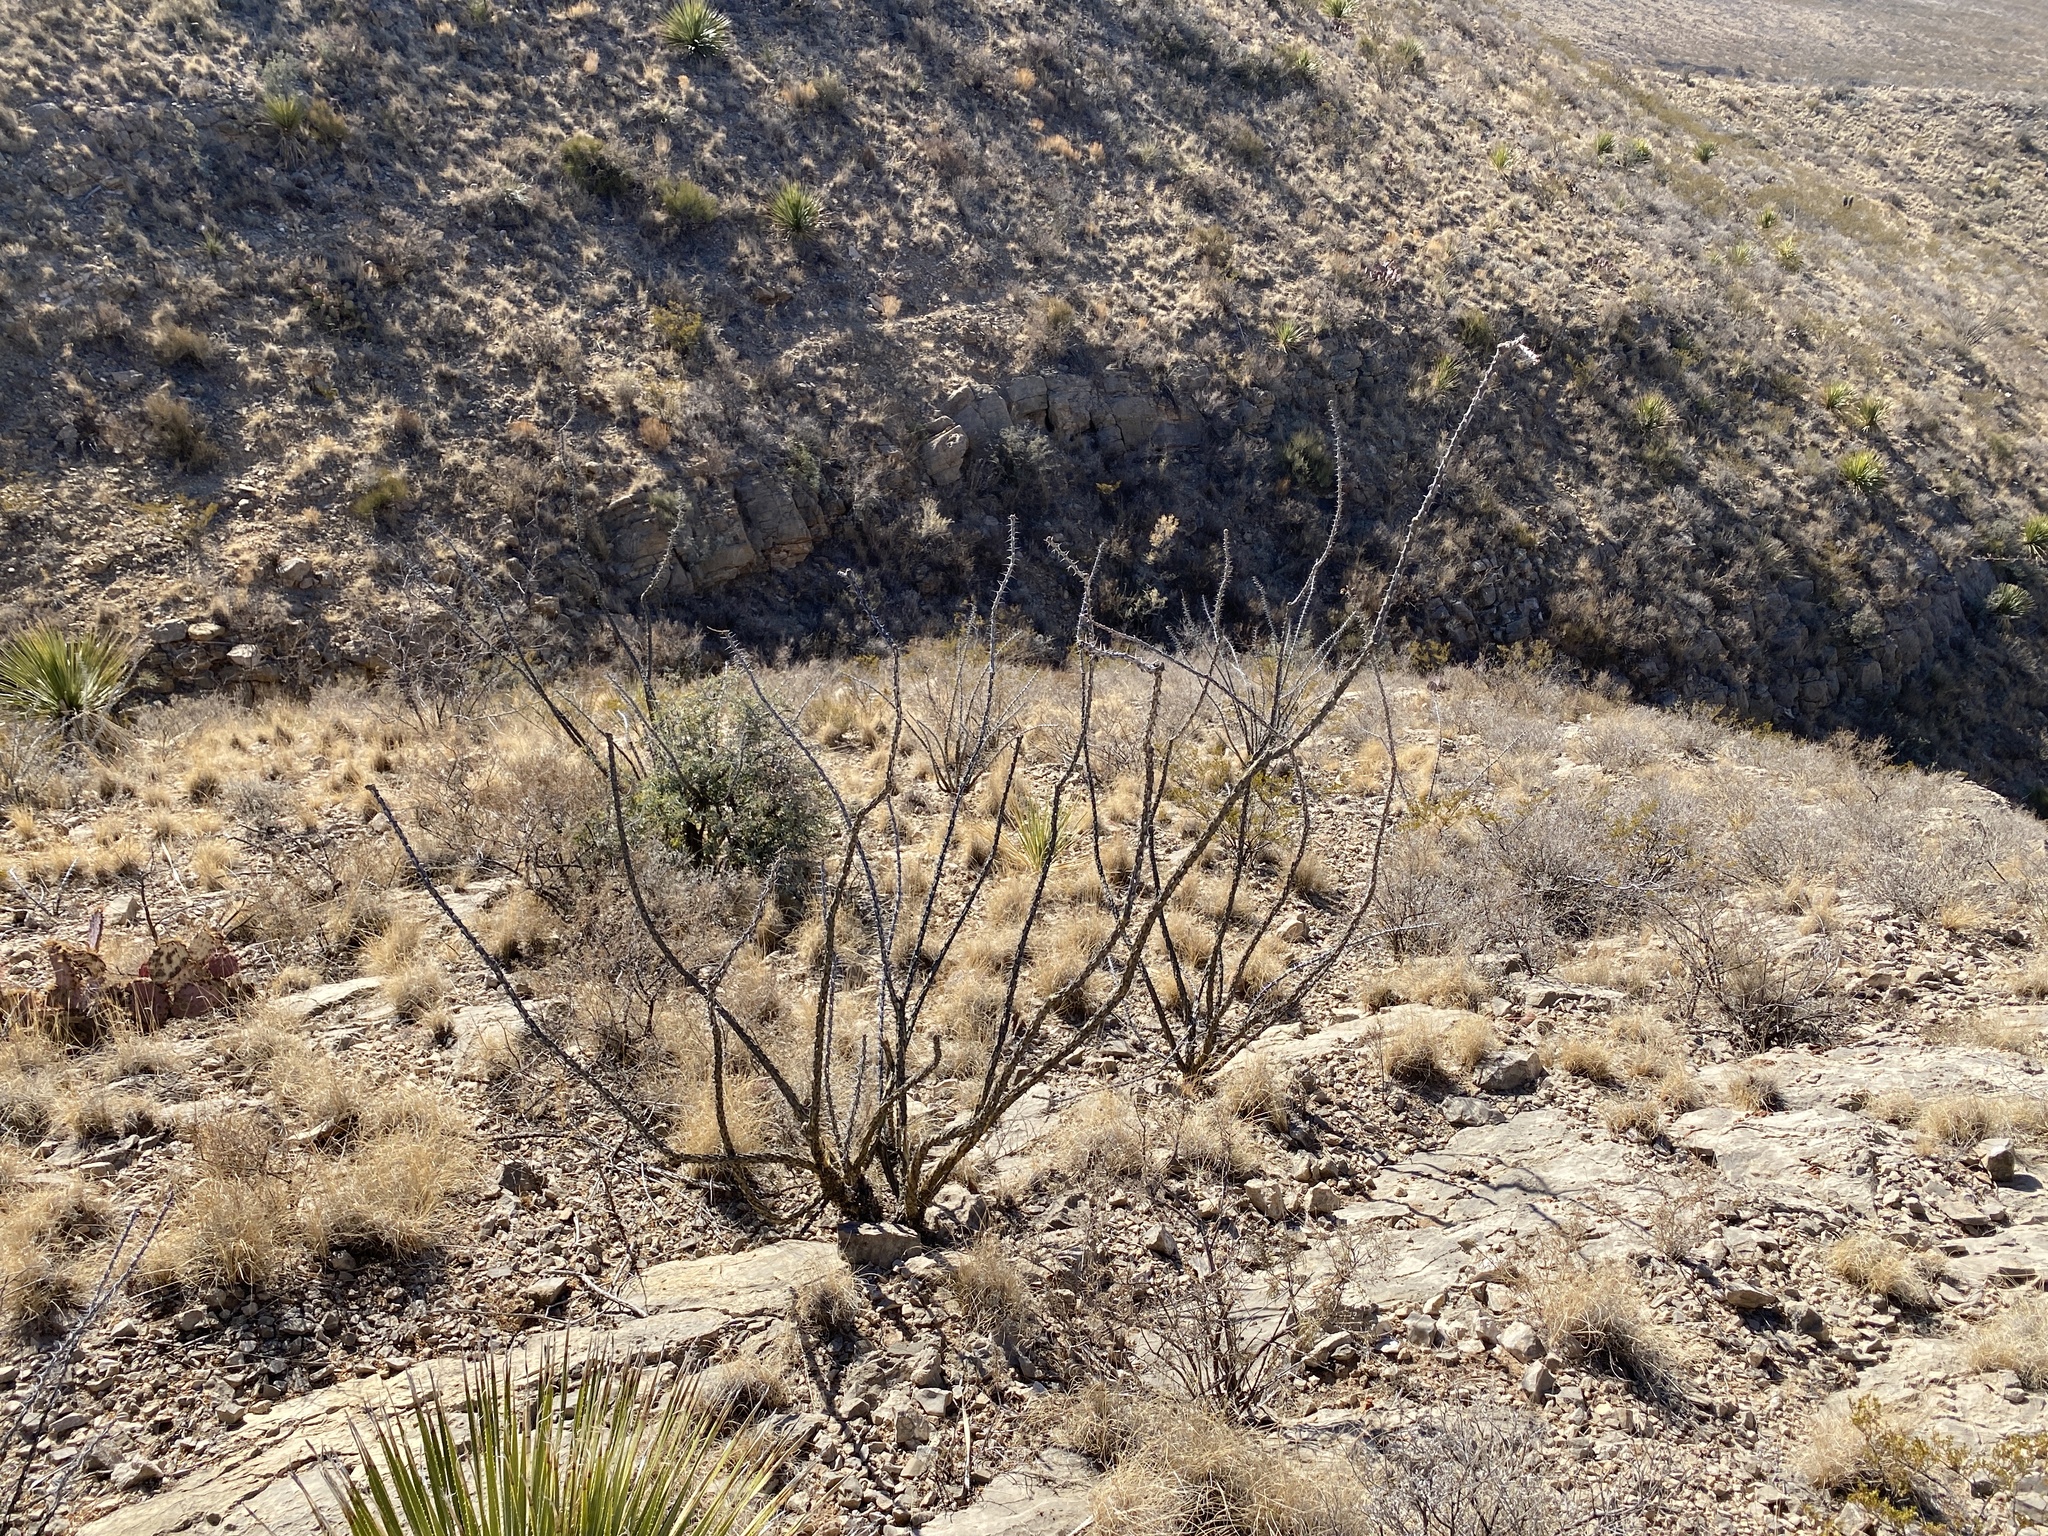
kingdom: Plantae
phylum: Tracheophyta
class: Magnoliopsida
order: Ericales
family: Fouquieriaceae
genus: Fouquieria
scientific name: Fouquieria splendens
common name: Vine-cactus
